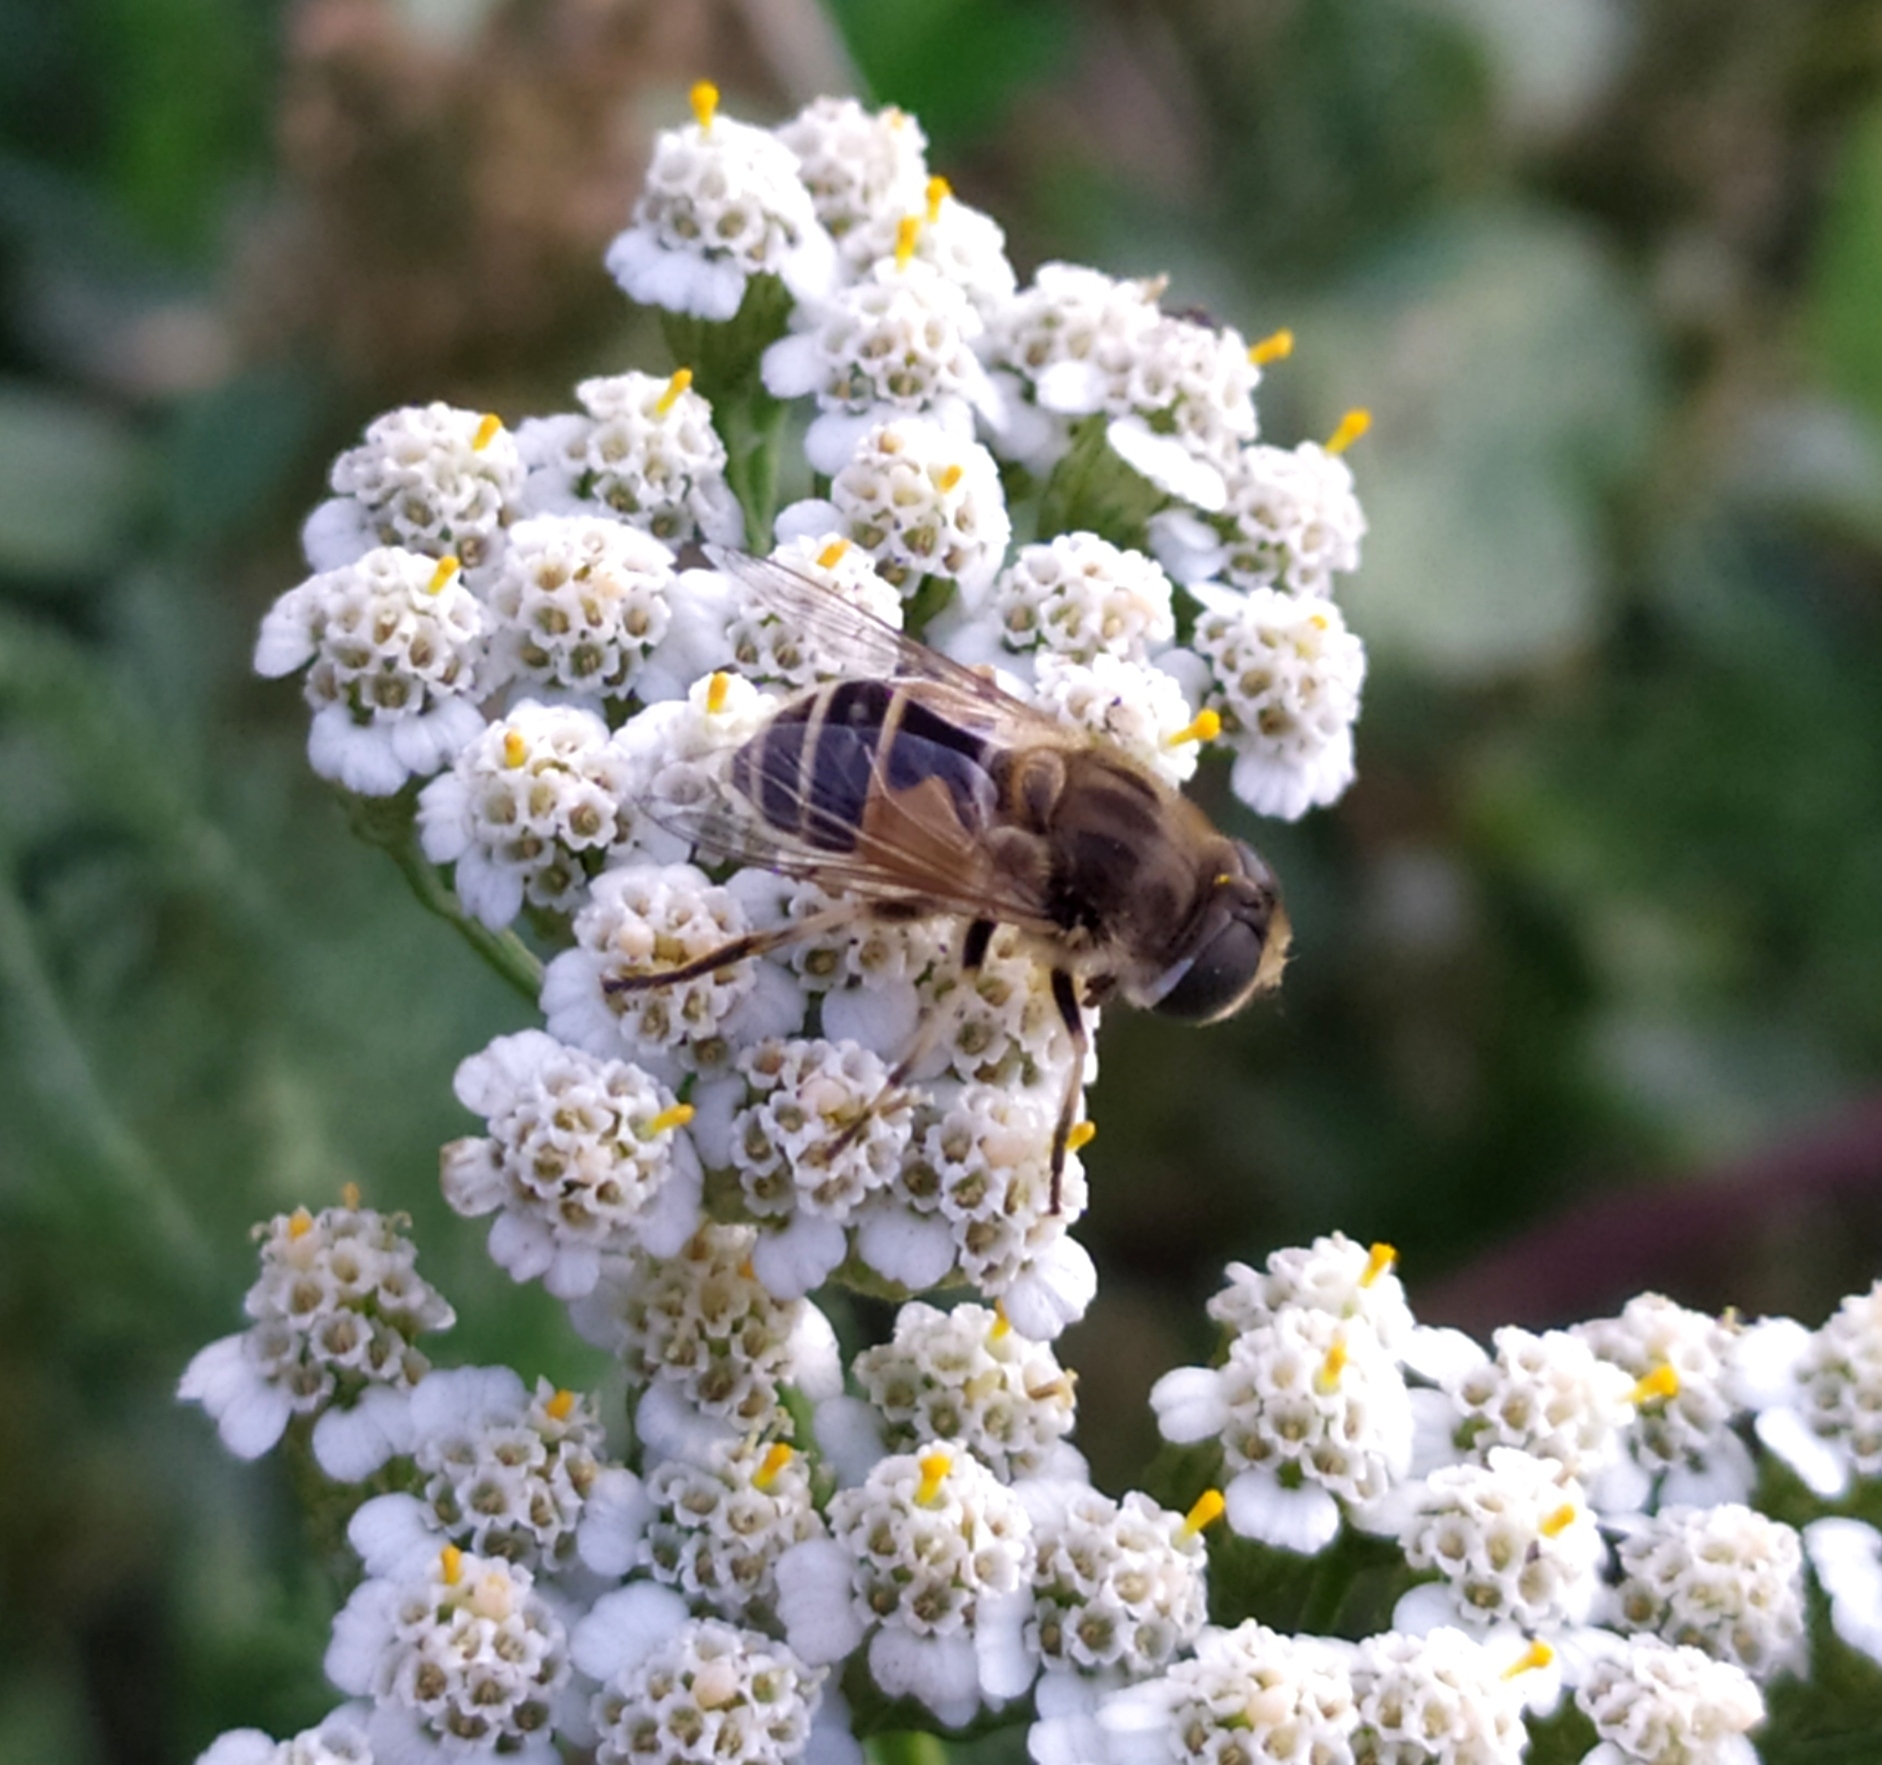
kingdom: Animalia
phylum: Arthropoda
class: Insecta
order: Diptera
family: Syrphidae
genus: Eristalis
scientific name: Eristalis arbustorum
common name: Hover fly
